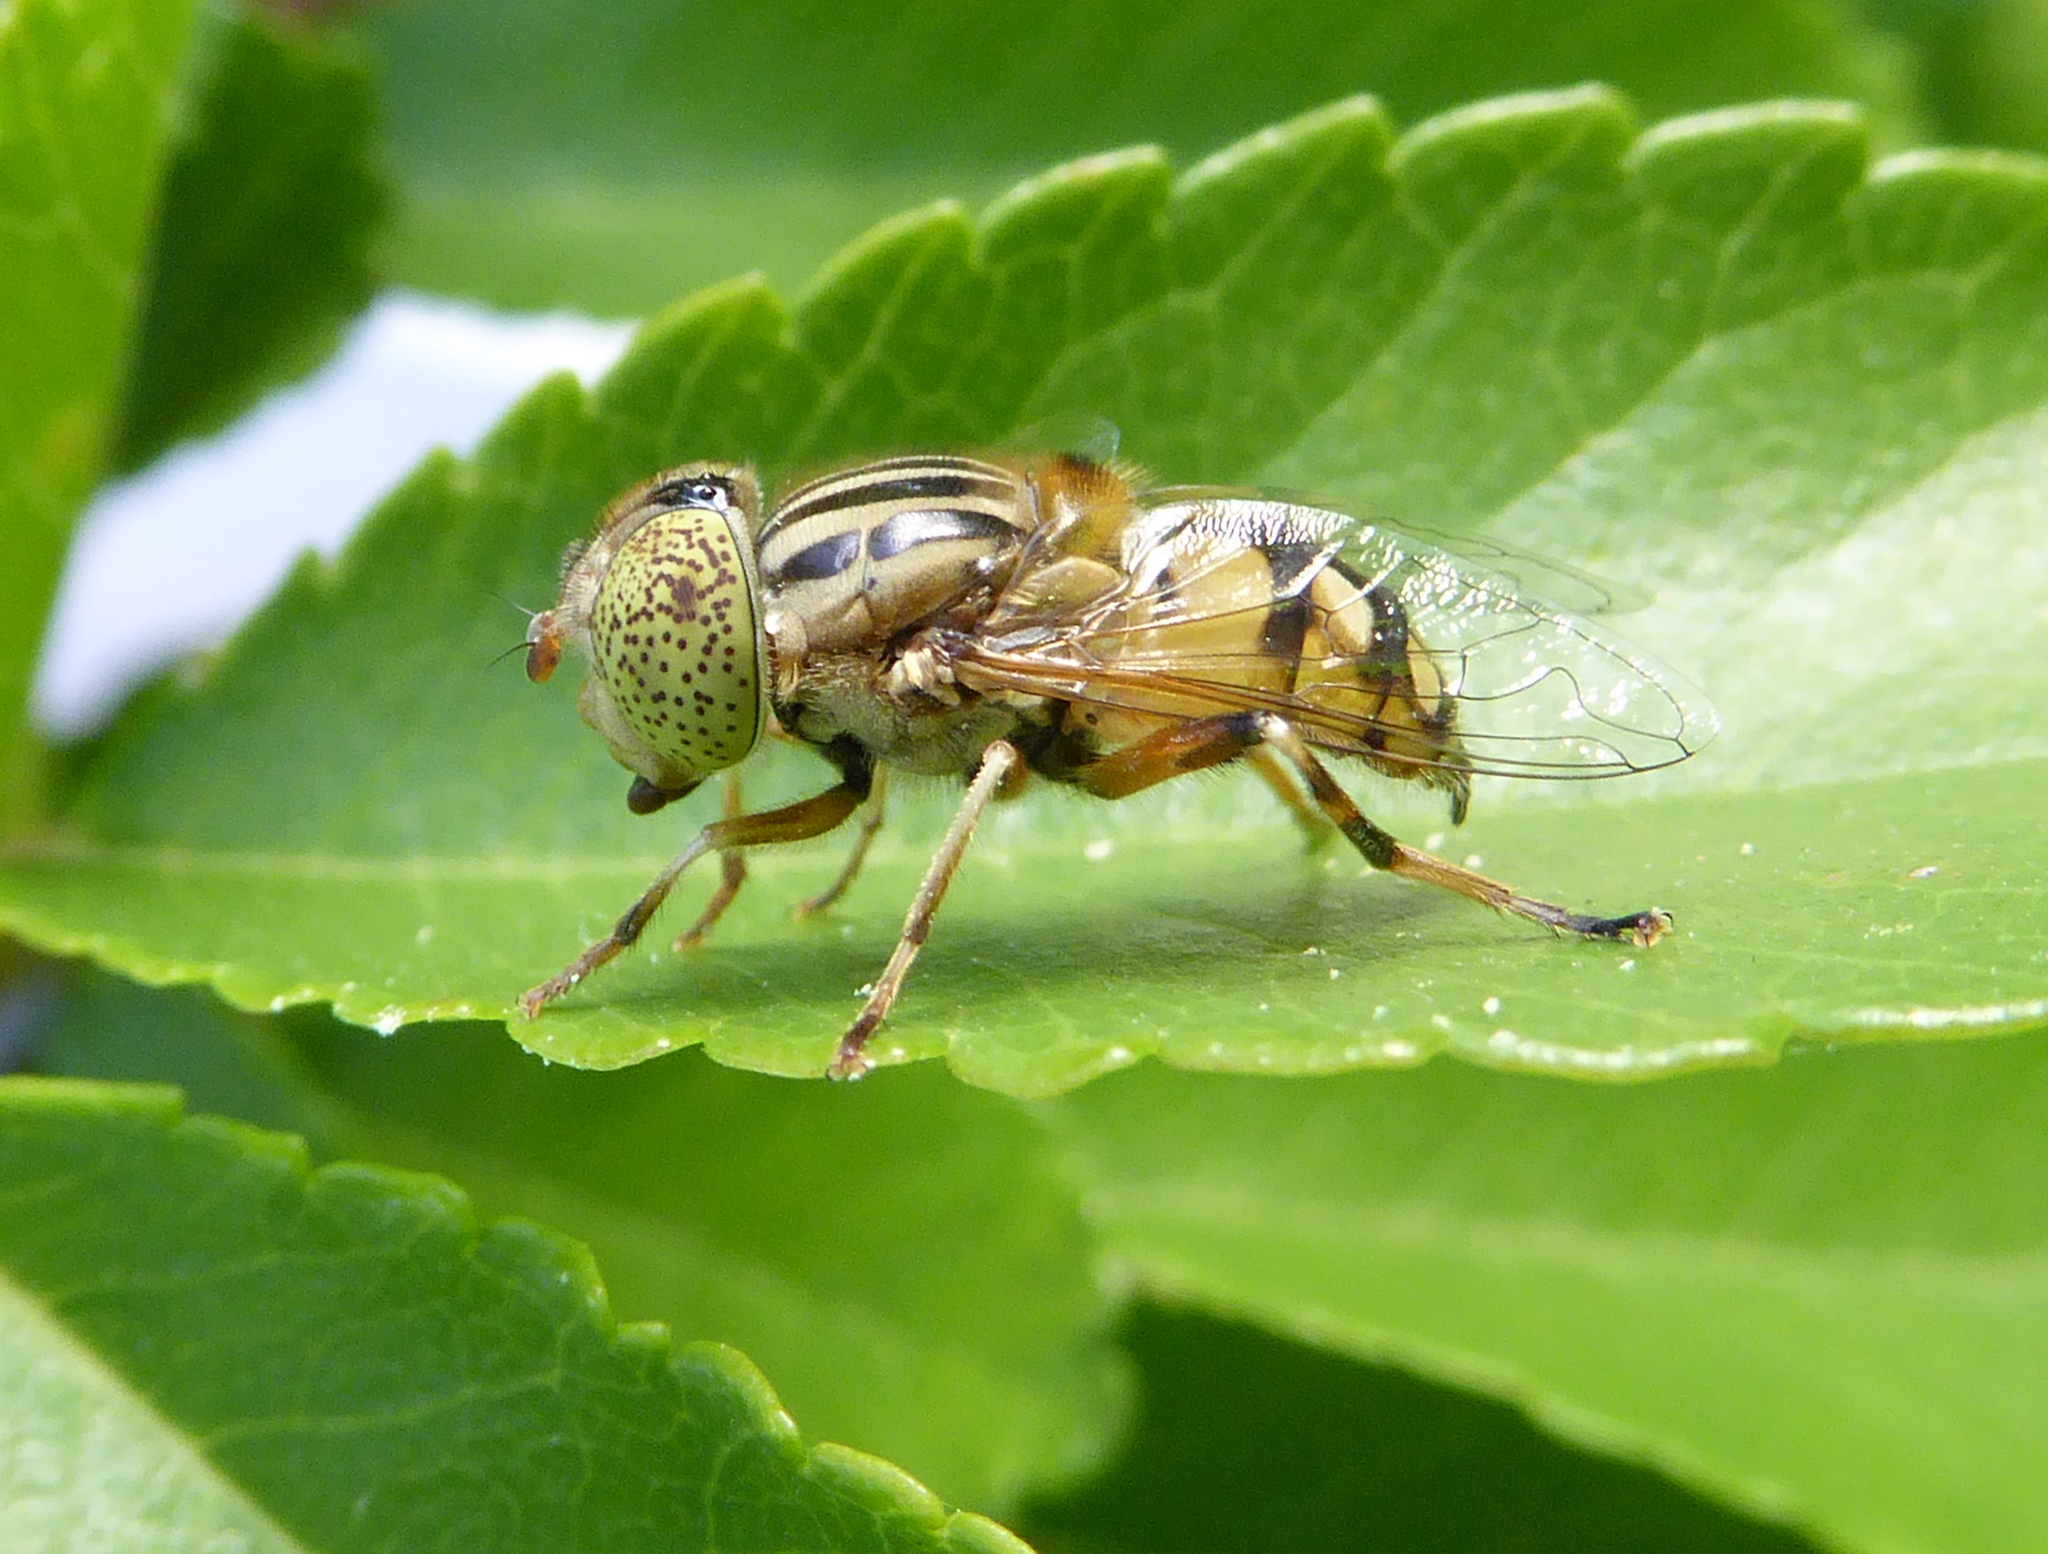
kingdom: Animalia
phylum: Arthropoda
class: Insecta
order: Diptera
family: Syrphidae
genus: Eristalinus
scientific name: Eristalinus punctulatus
